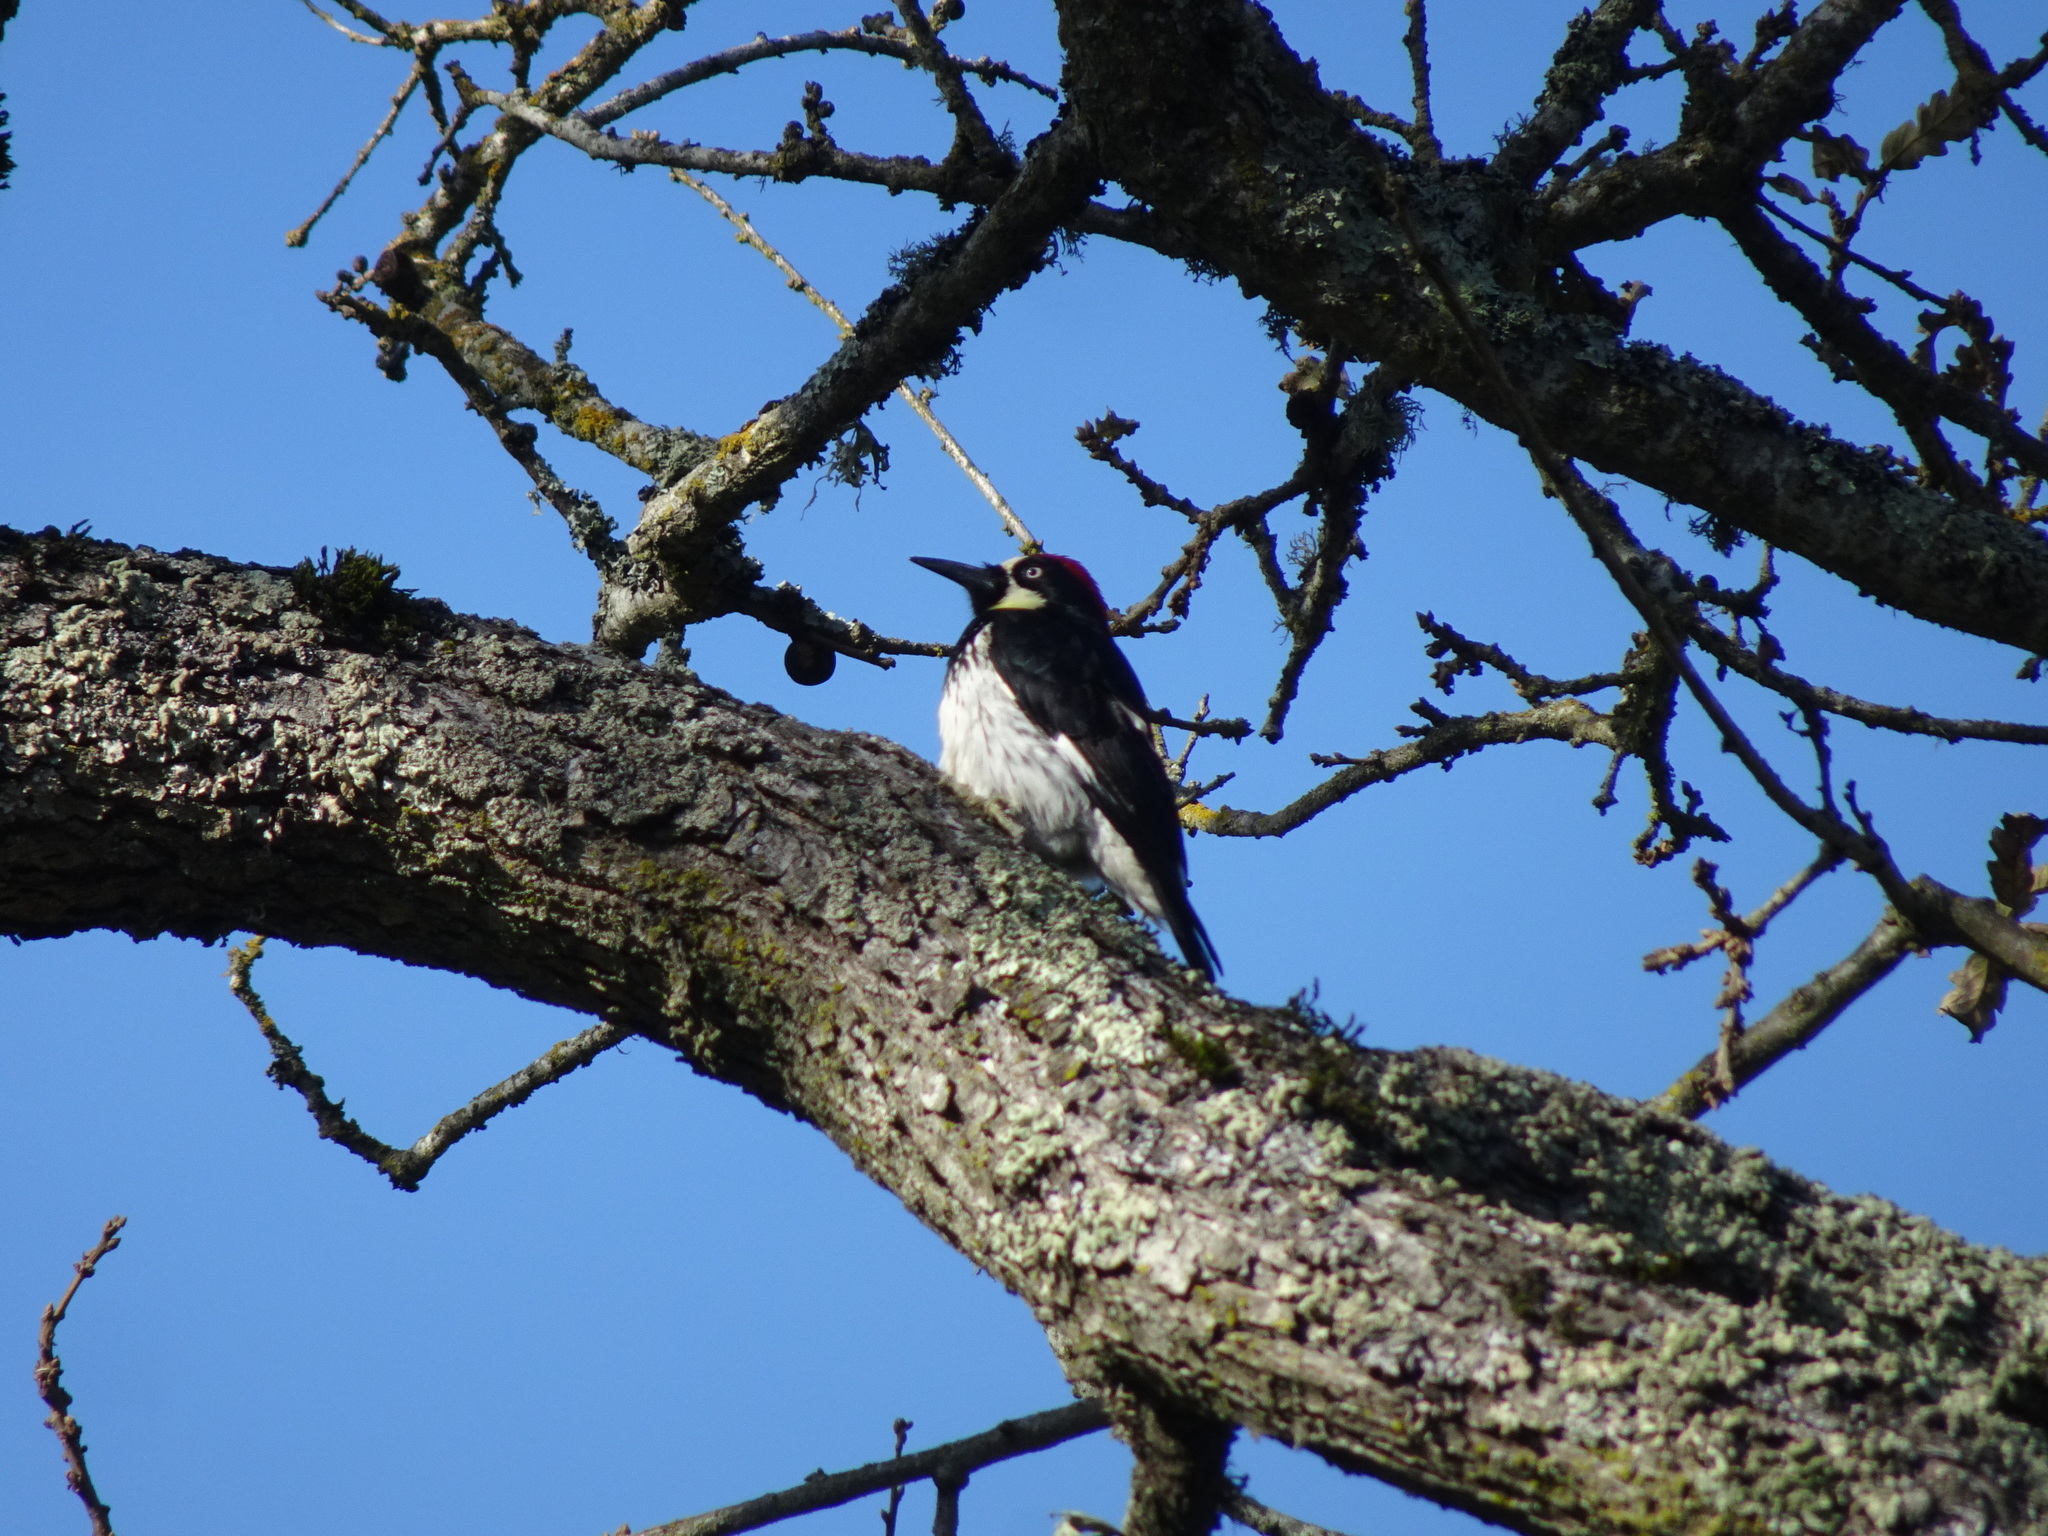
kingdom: Animalia
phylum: Chordata
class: Aves
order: Piciformes
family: Picidae
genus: Melanerpes
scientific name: Melanerpes formicivorus
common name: Acorn woodpecker
